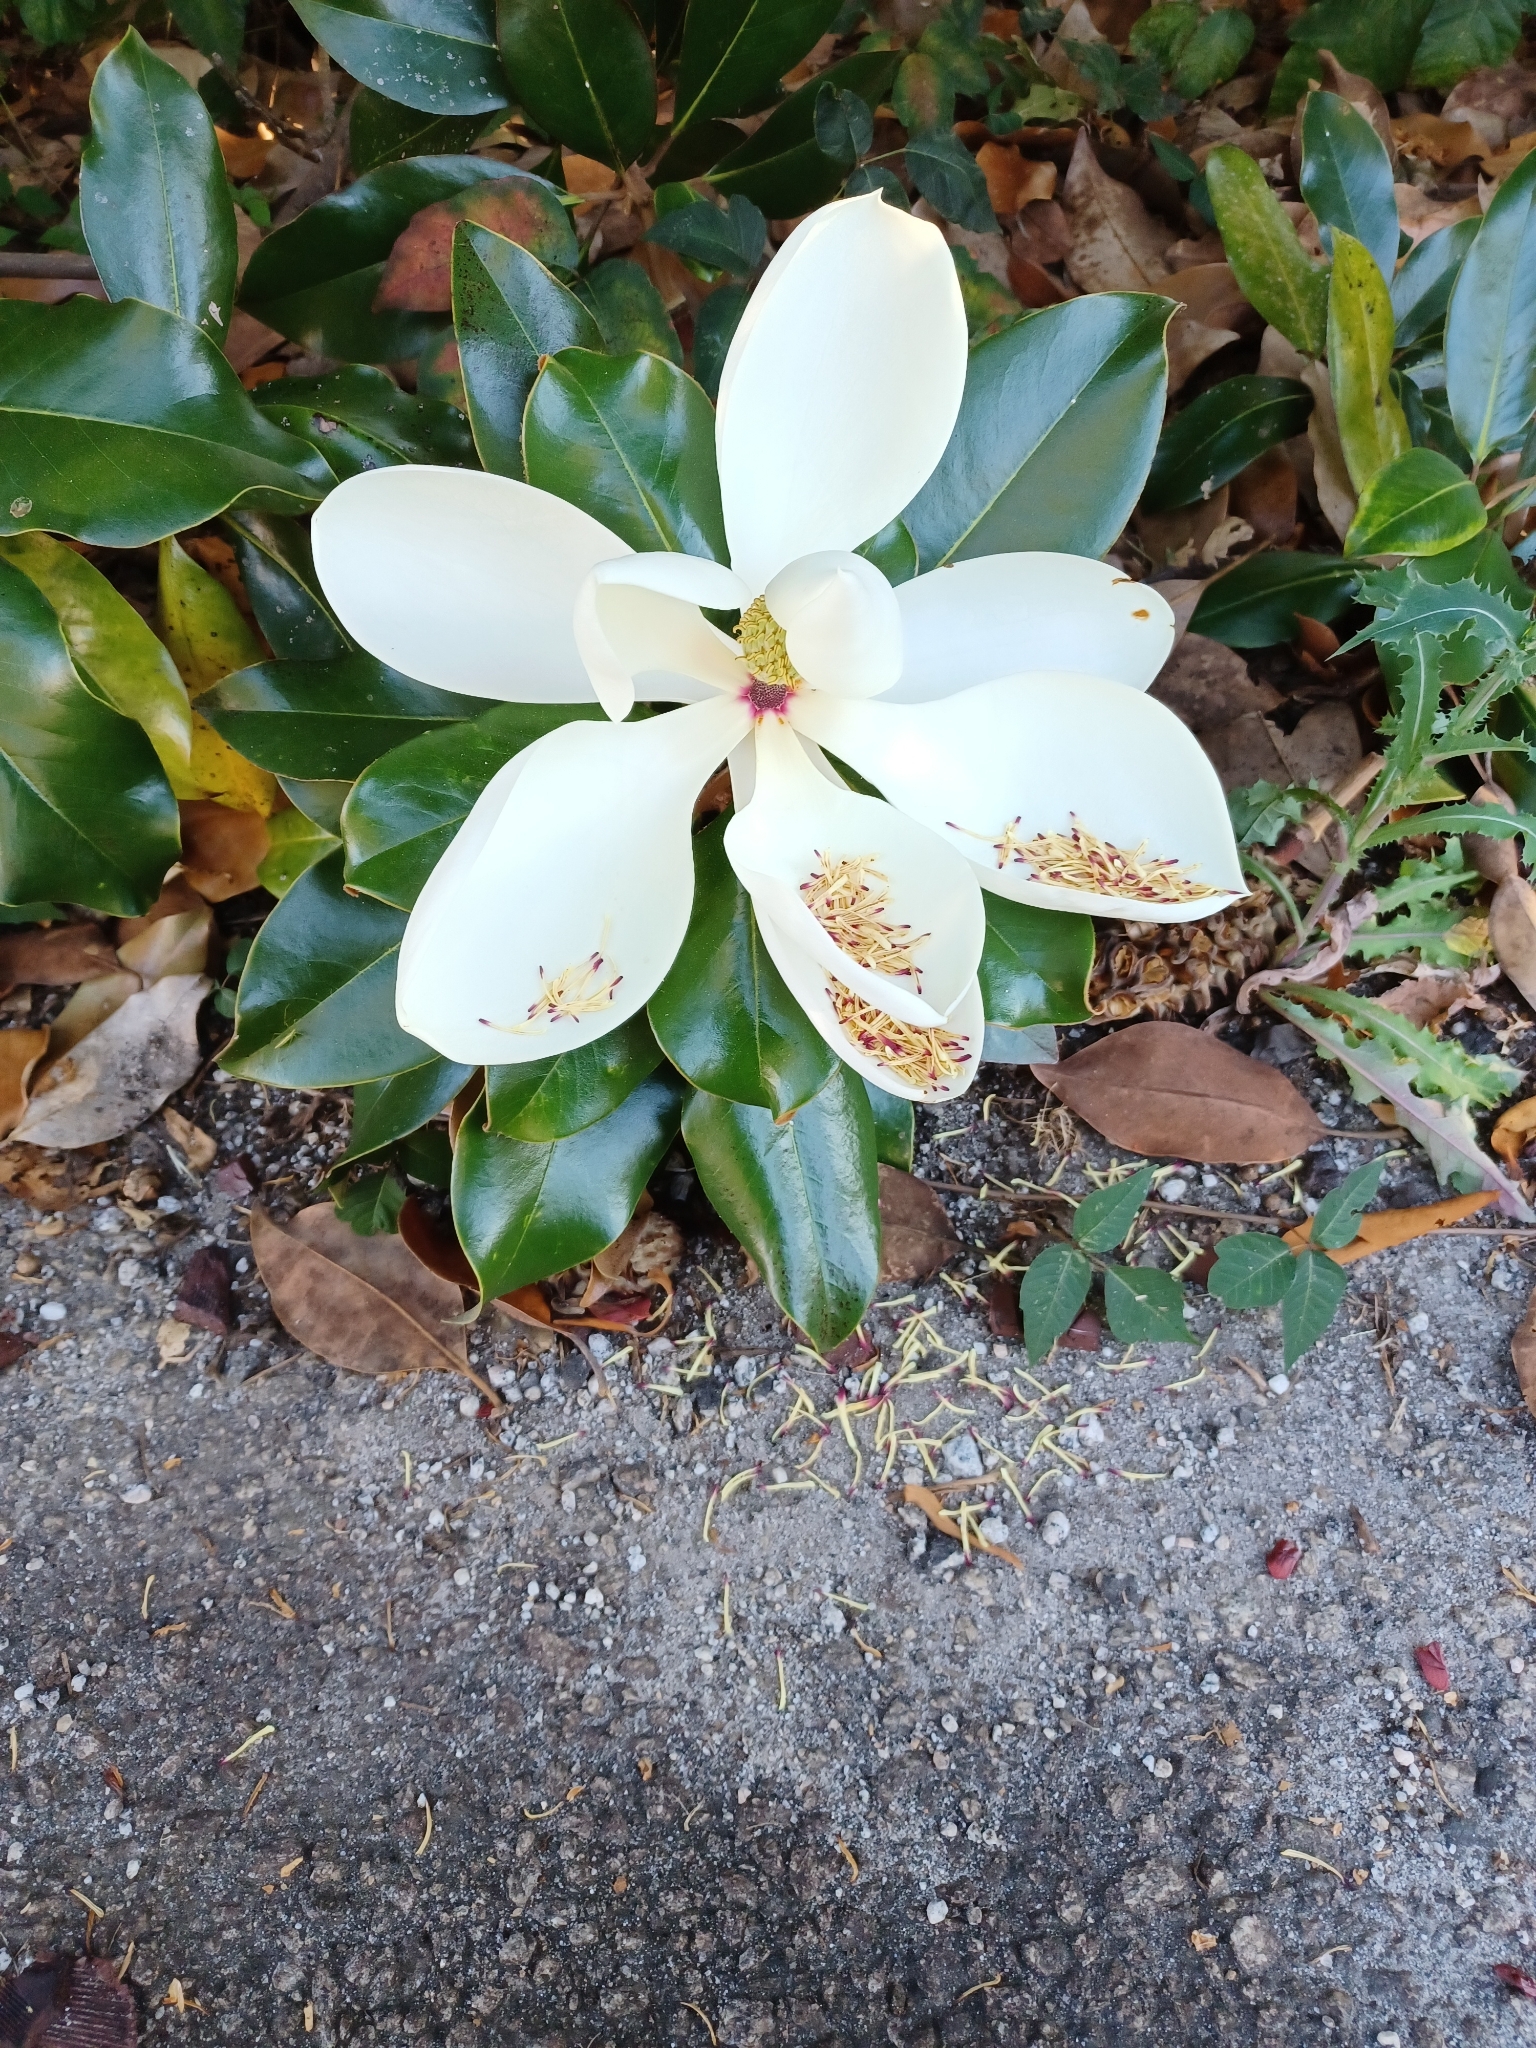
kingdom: Plantae
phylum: Tracheophyta
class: Magnoliopsida
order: Magnoliales
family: Magnoliaceae
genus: Magnolia
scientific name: Magnolia grandiflora
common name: Southern magnolia
